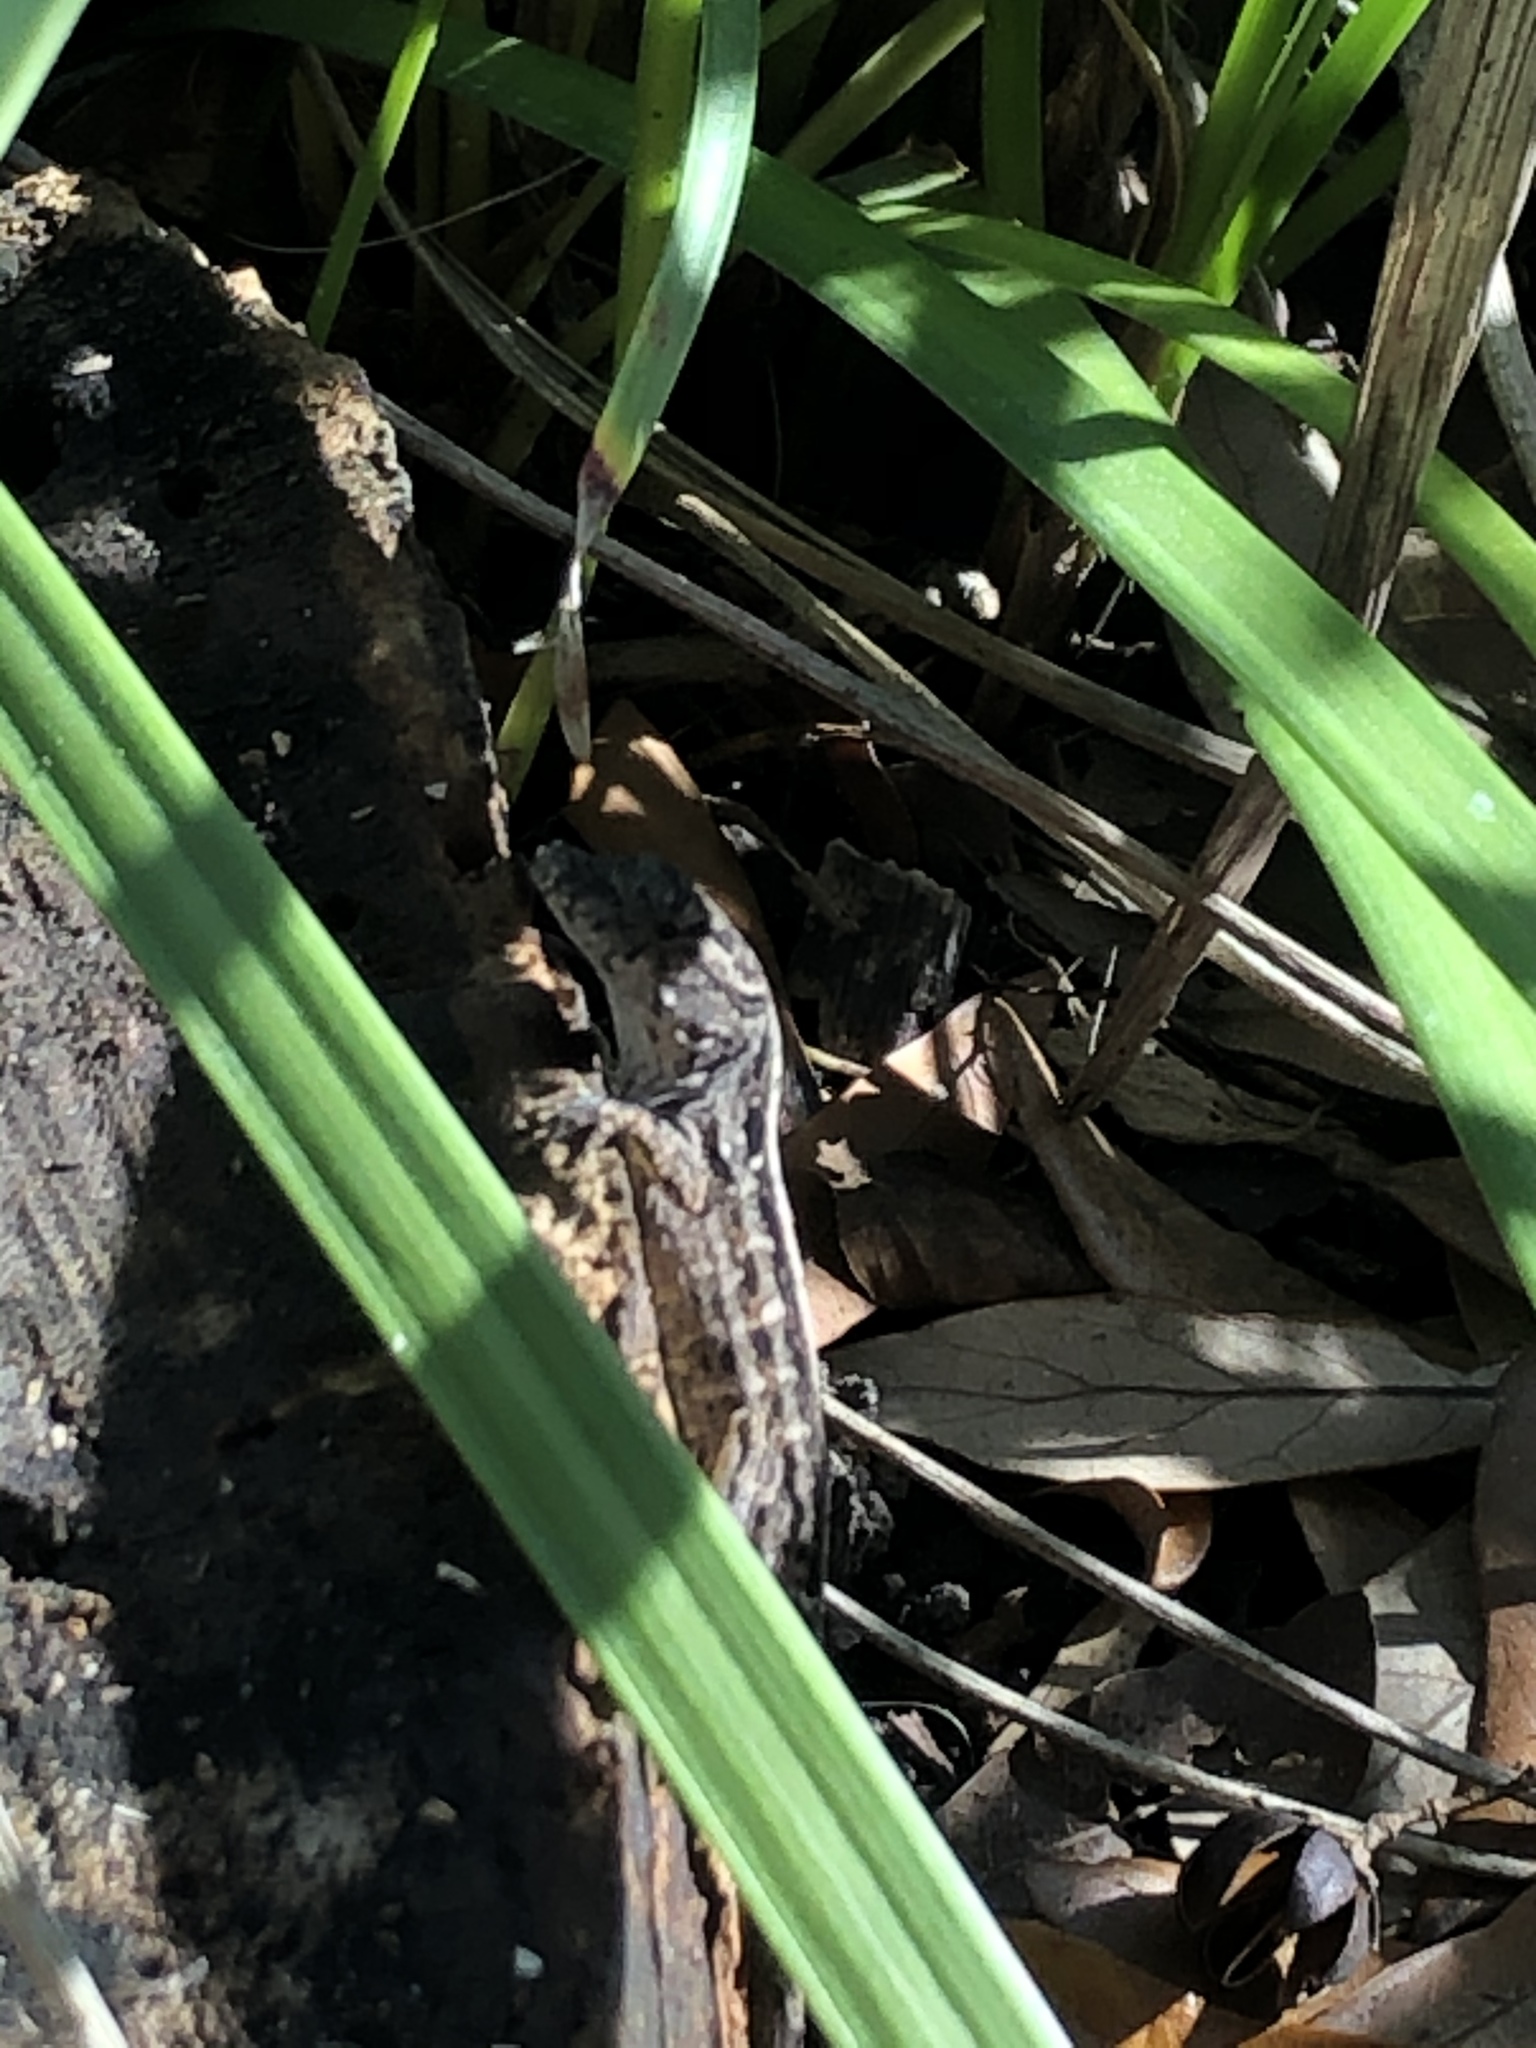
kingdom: Animalia
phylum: Chordata
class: Squamata
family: Dactyloidae
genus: Anolis
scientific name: Anolis sagrei
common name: Brown anole
